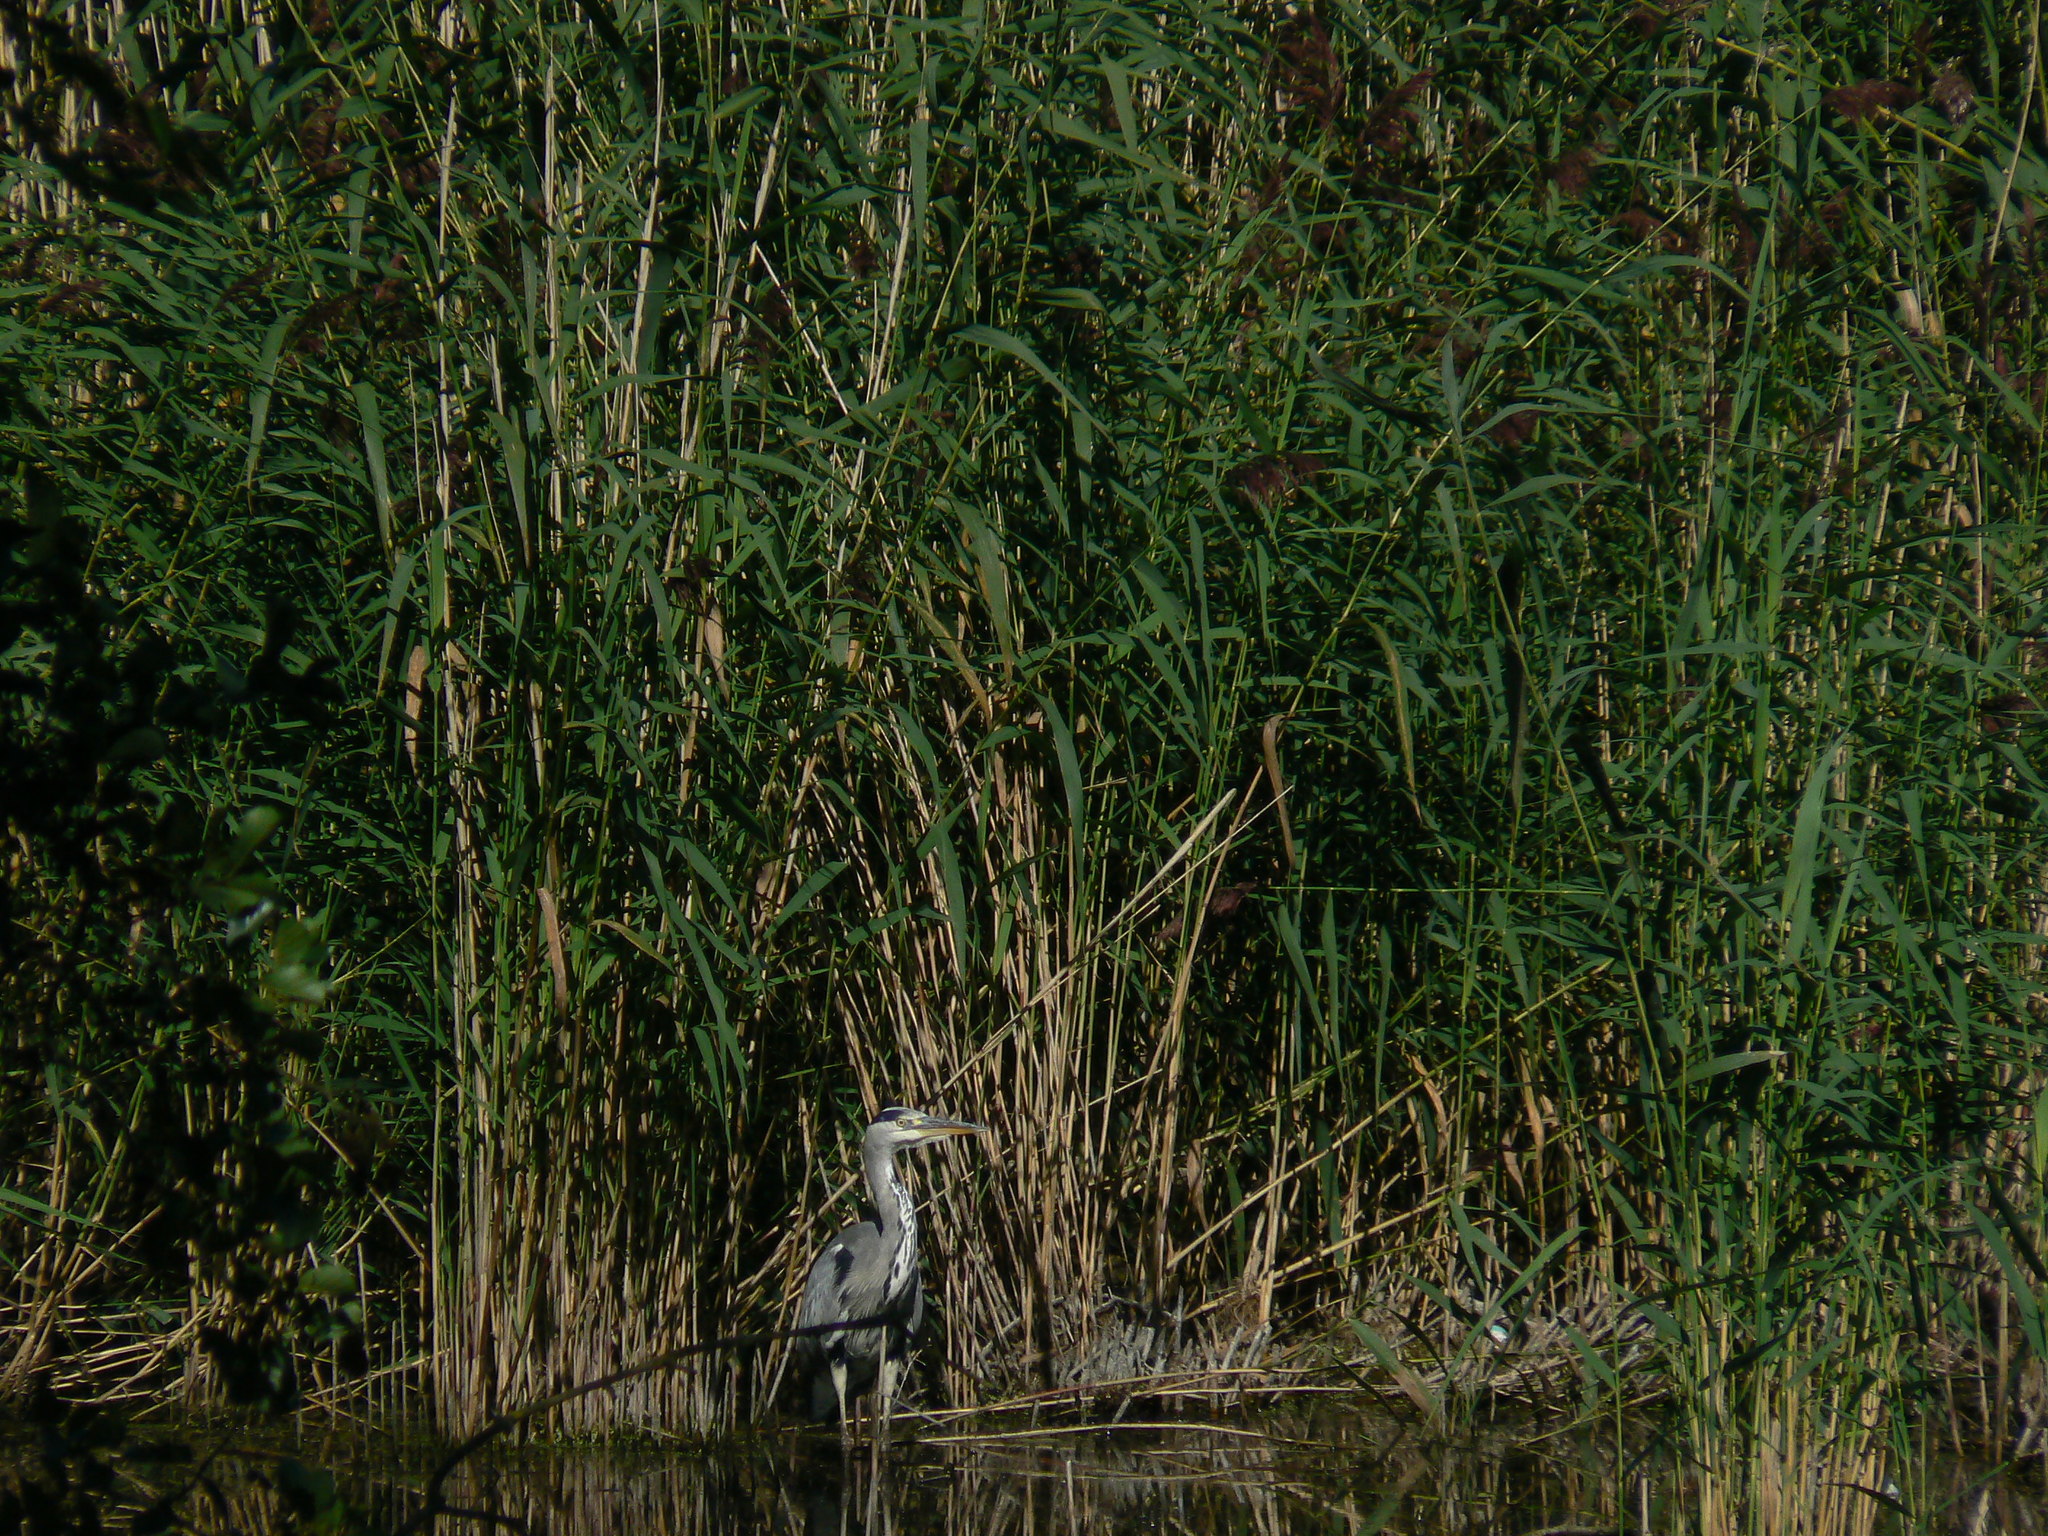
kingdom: Animalia
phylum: Chordata
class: Aves
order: Pelecaniformes
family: Ardeidae
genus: Ardea
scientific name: Ardea cinerea
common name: Grey heron
